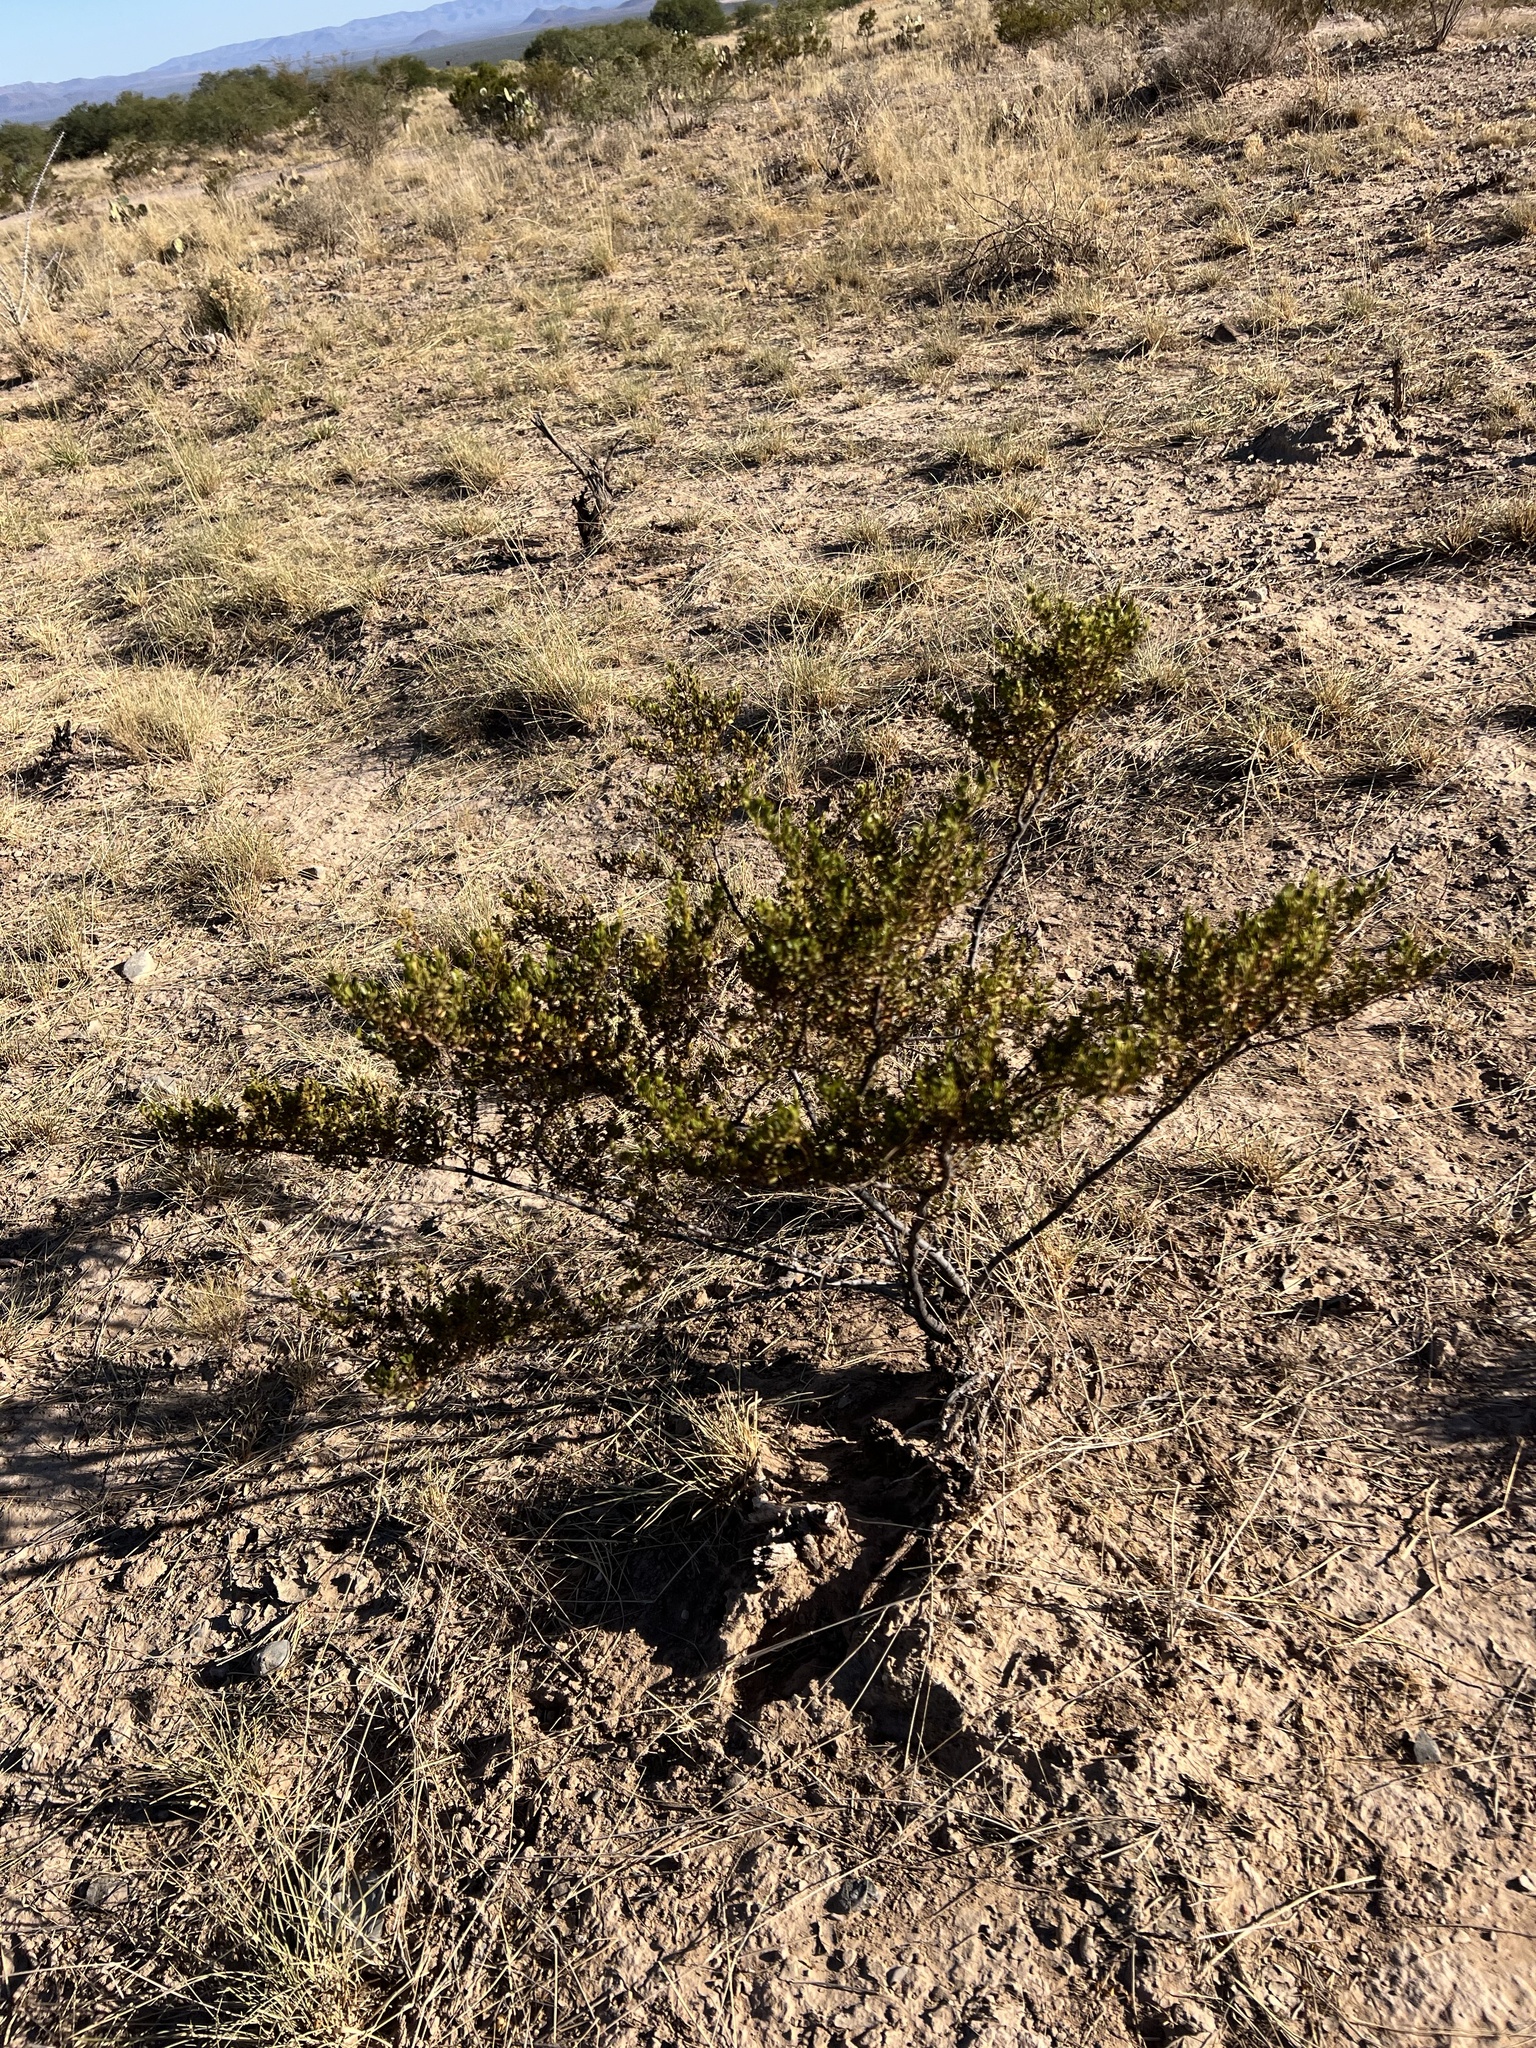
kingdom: Plantae
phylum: Tracheophyta
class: Magnoliopsida
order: Zygophyllales
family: Zygophyllaceae
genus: Larrea
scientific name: Larrea tridentata
